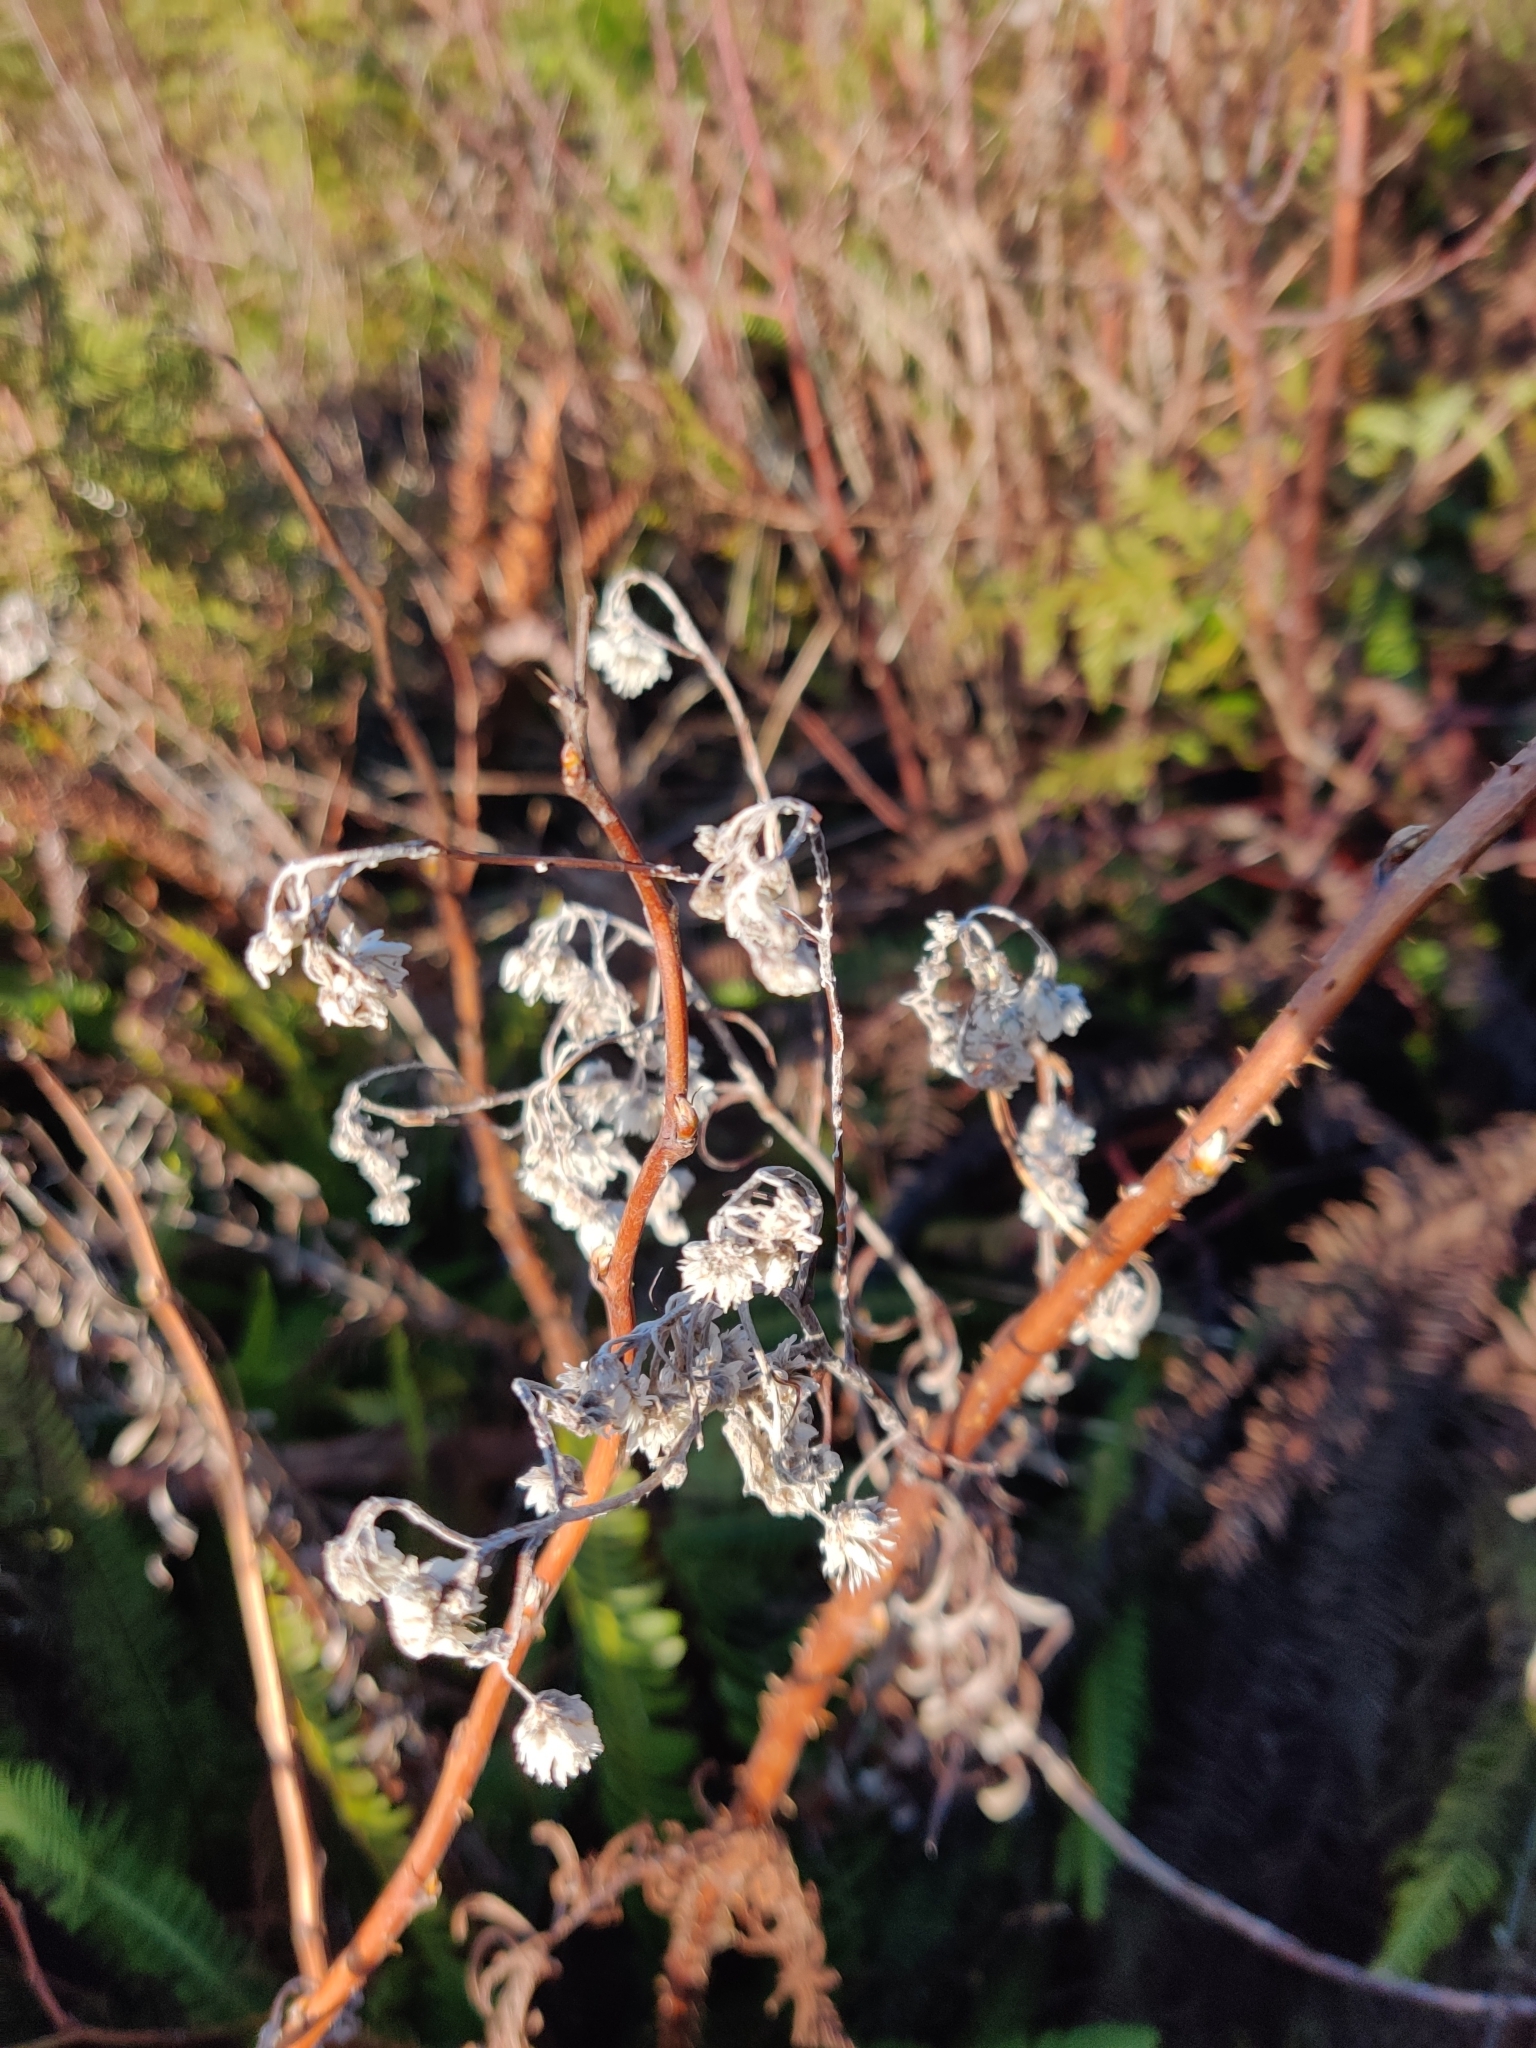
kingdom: Plantae
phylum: Tracheophyta
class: Magnoliopsida
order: Asterales
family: Asteraceae
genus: Anaphalis
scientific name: Anaphalis margaritacea
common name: Pearly everlasting
